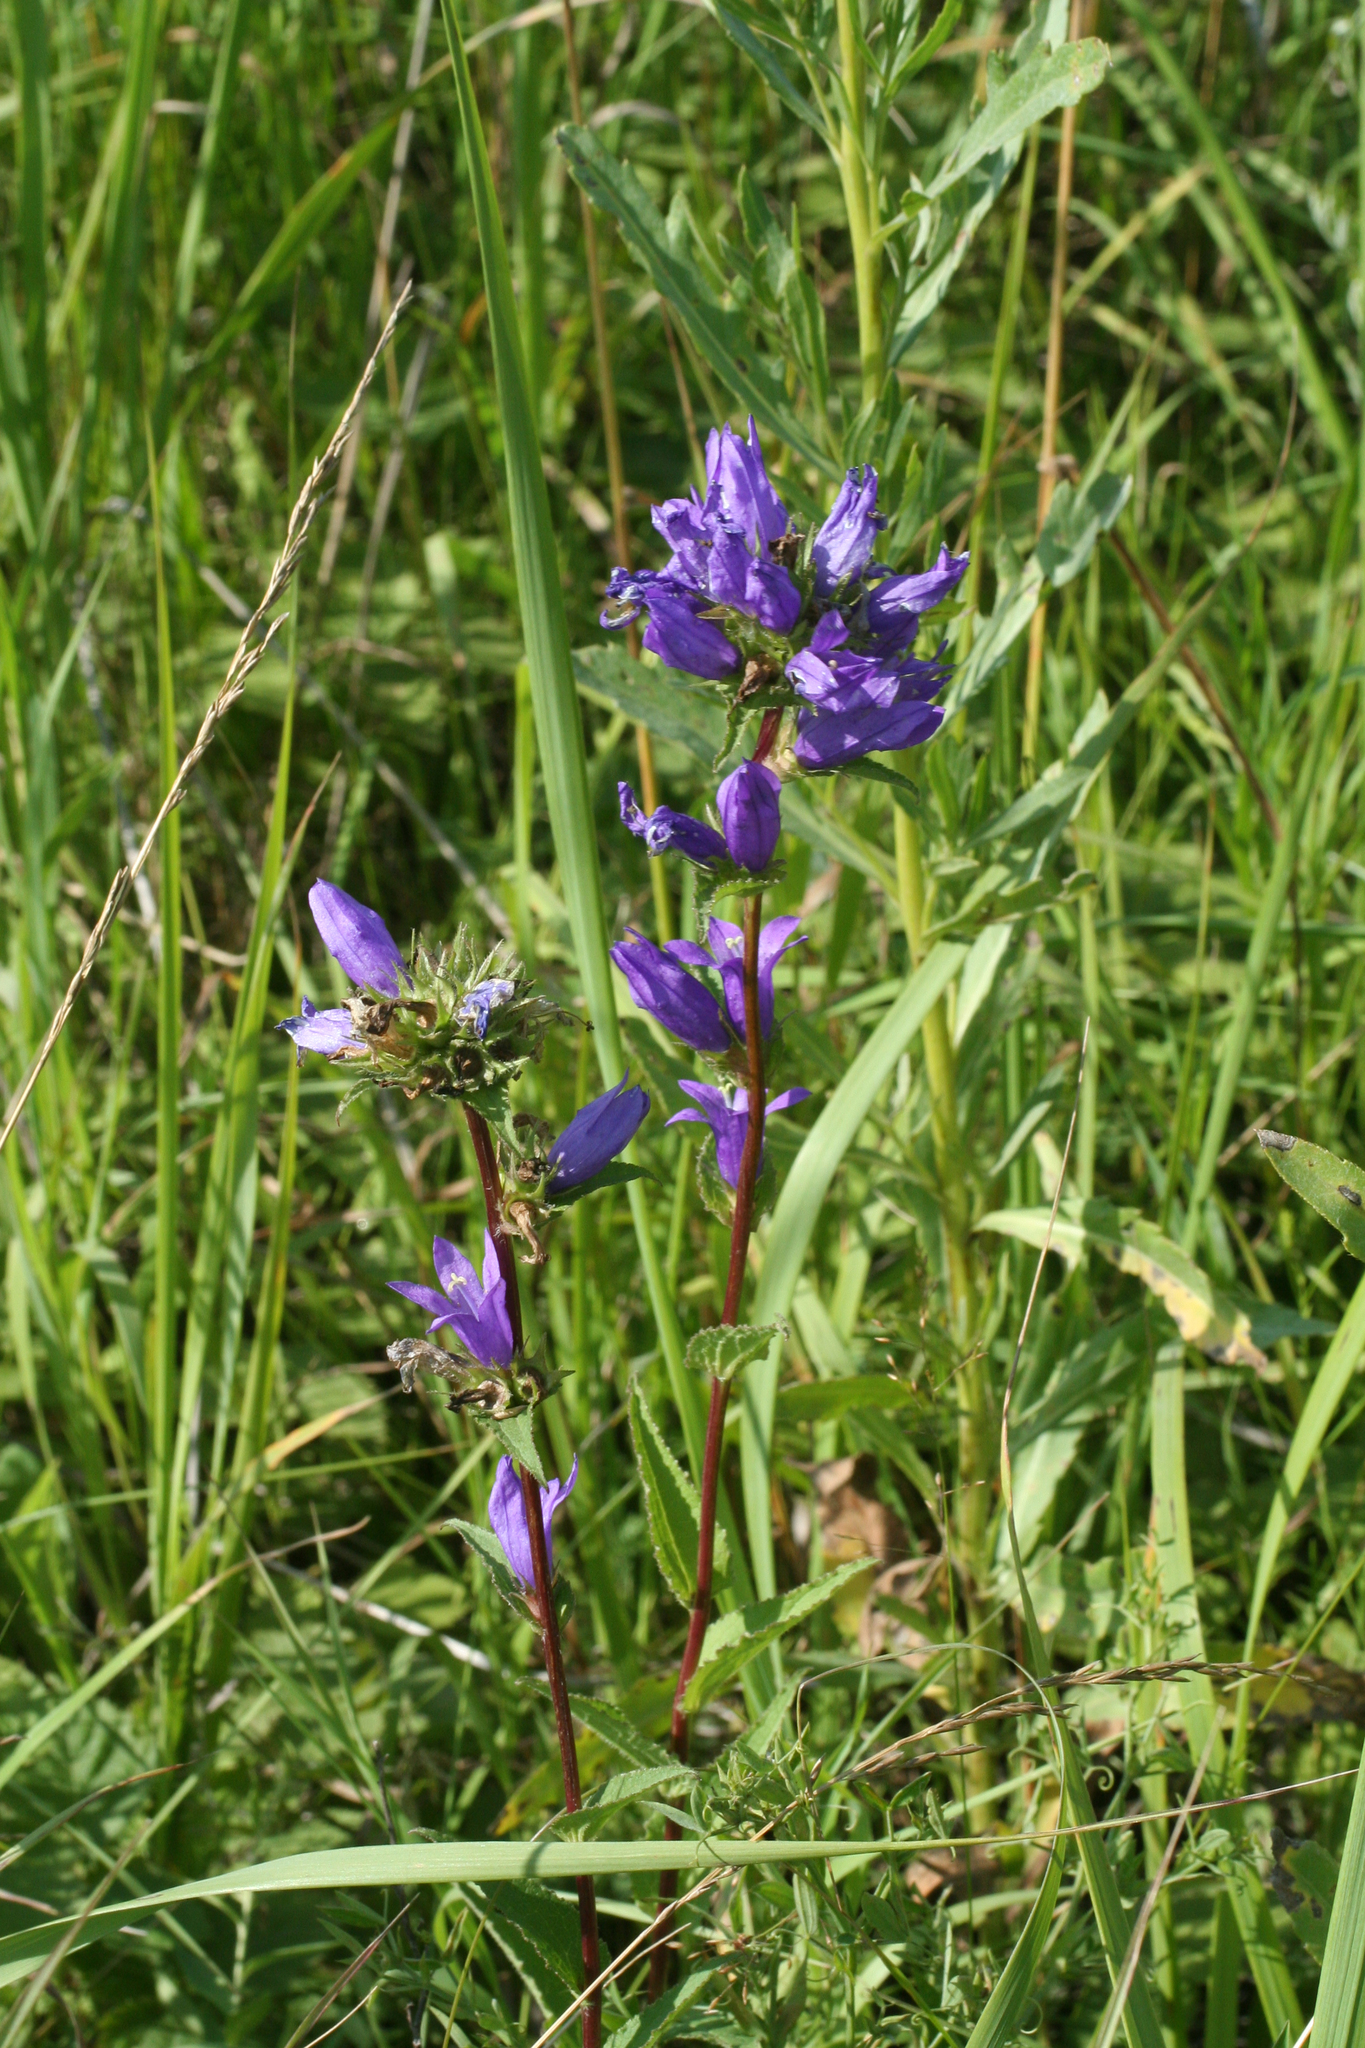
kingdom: Plantae
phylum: Tracheophyta
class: Magnoliopsida
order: Asterales
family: Campanulaceae
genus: Campanula
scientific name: Campanula glomerata
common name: Clustered bellflower
